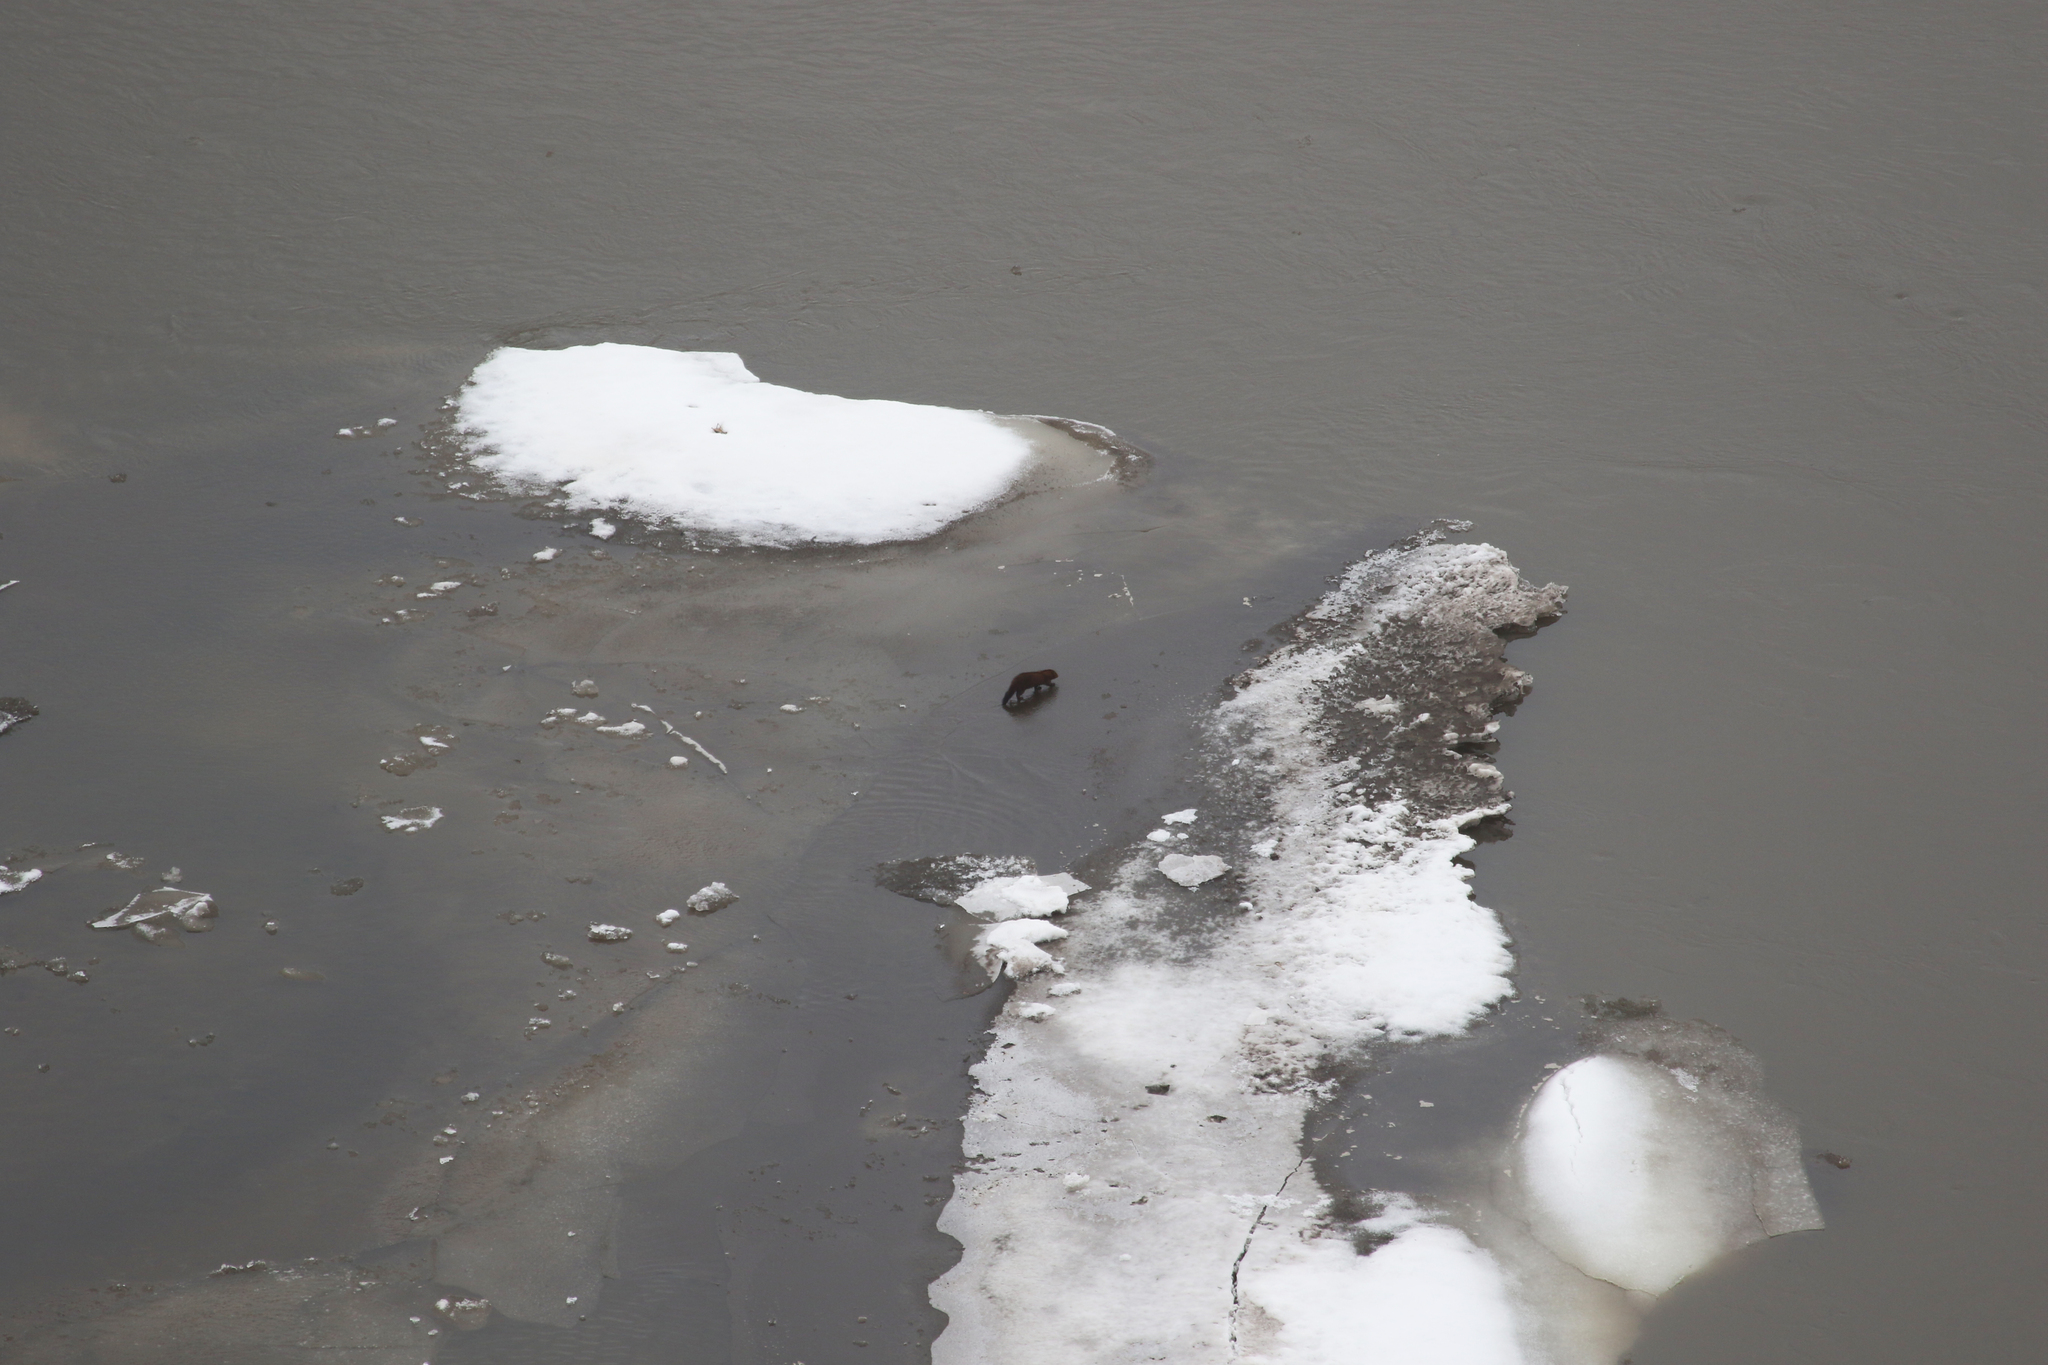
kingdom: Animalia
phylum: Chordata
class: Mammalia
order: Carnivora
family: Mustelidae
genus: Mustela
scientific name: Mustela
